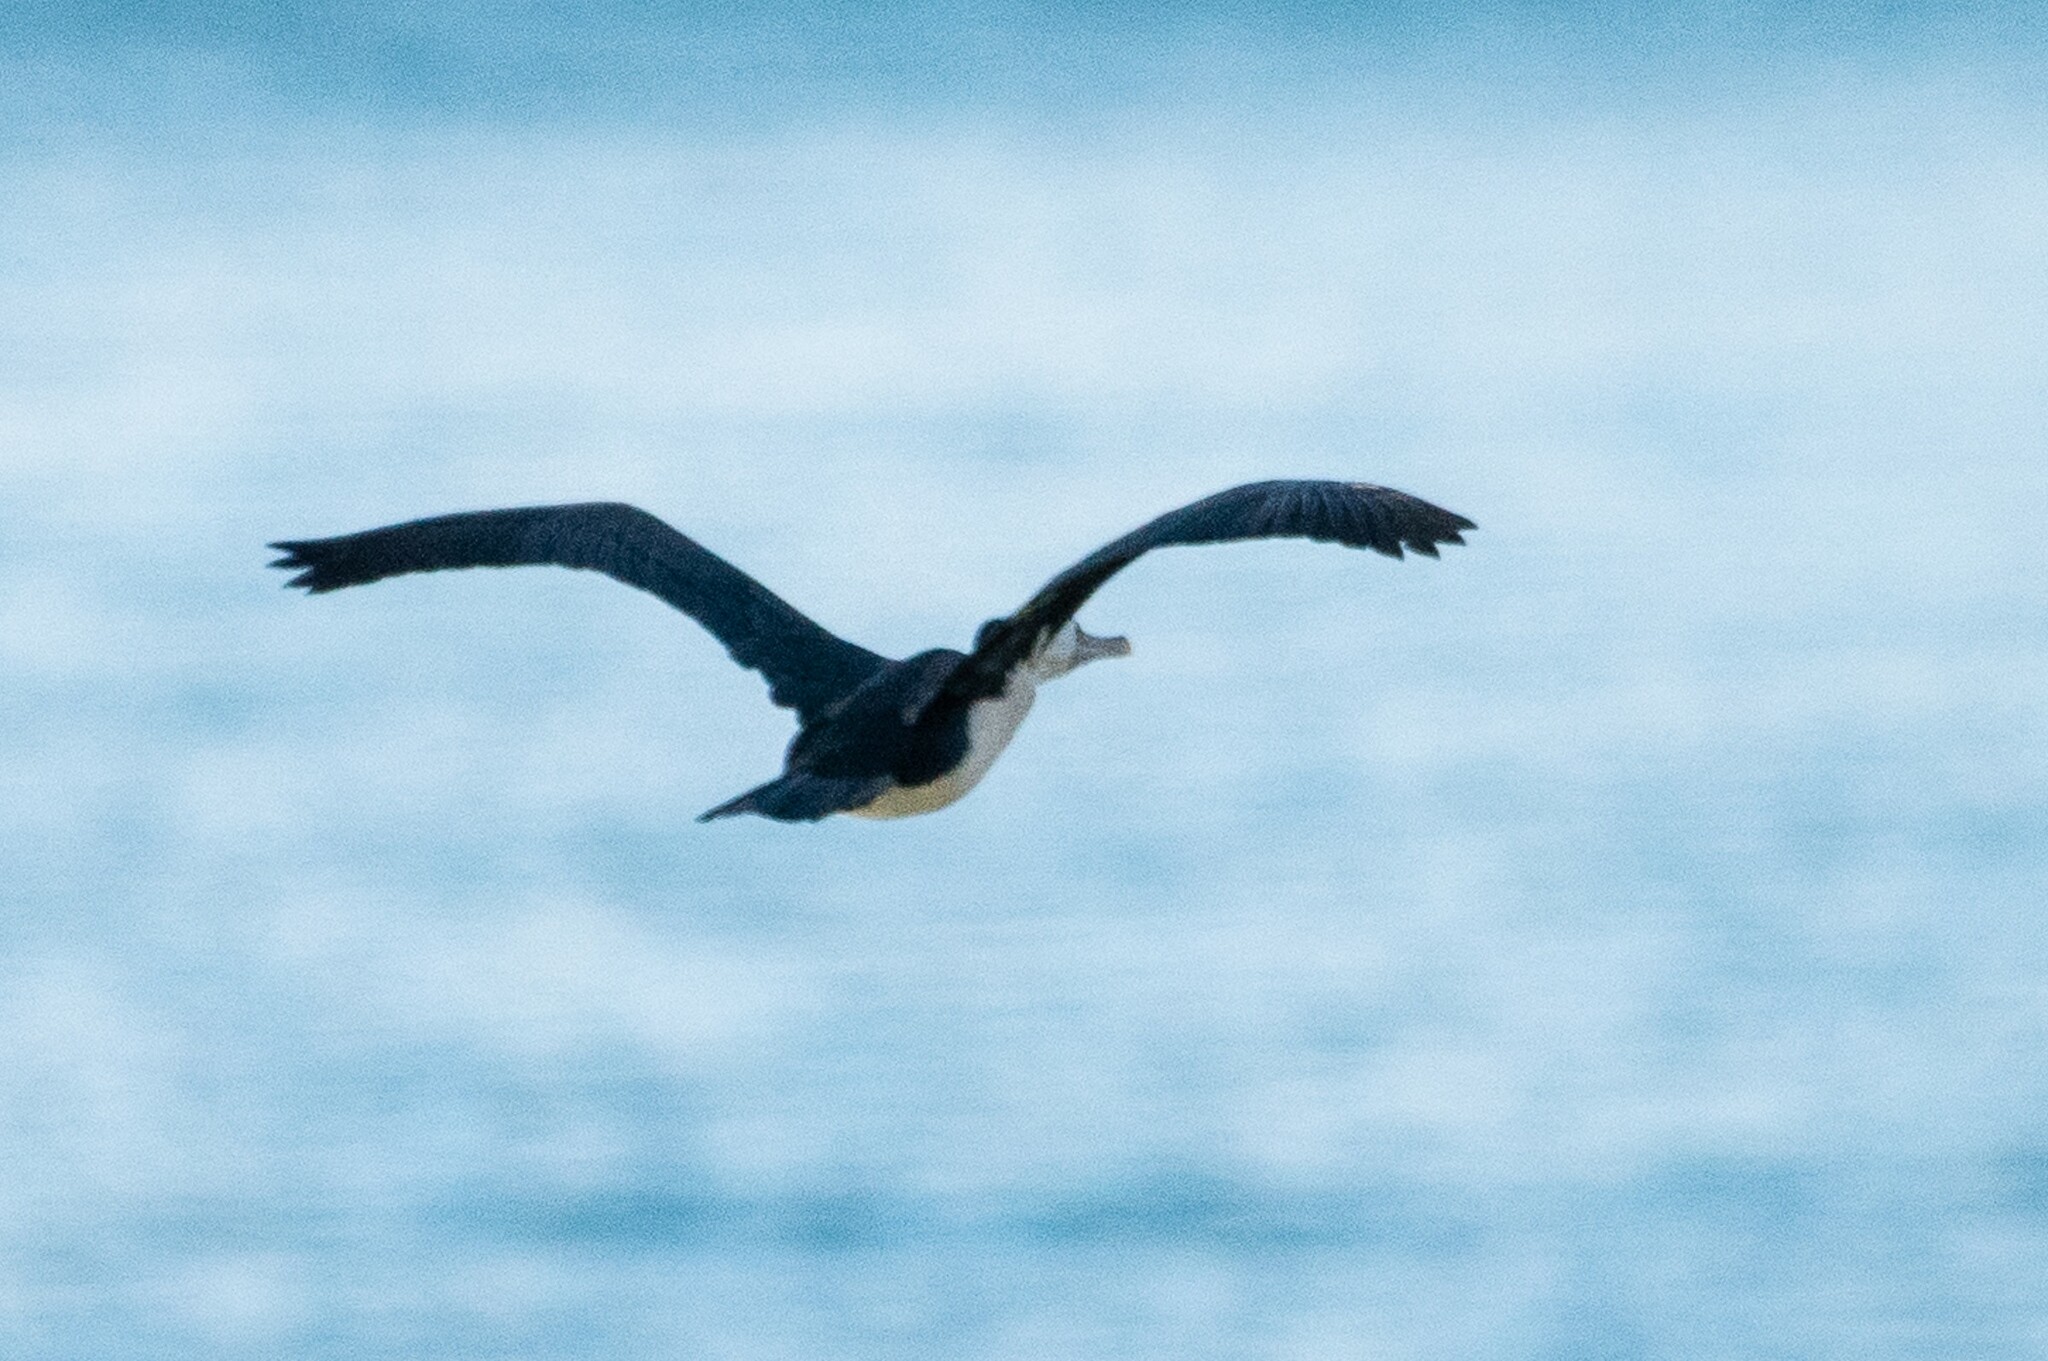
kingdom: Animalia
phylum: Chordata
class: Aves
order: Suliformes
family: Phalacrocoracidae
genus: Phalacrocorax
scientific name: Phalacrocorax varius
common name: Pied cormorant
